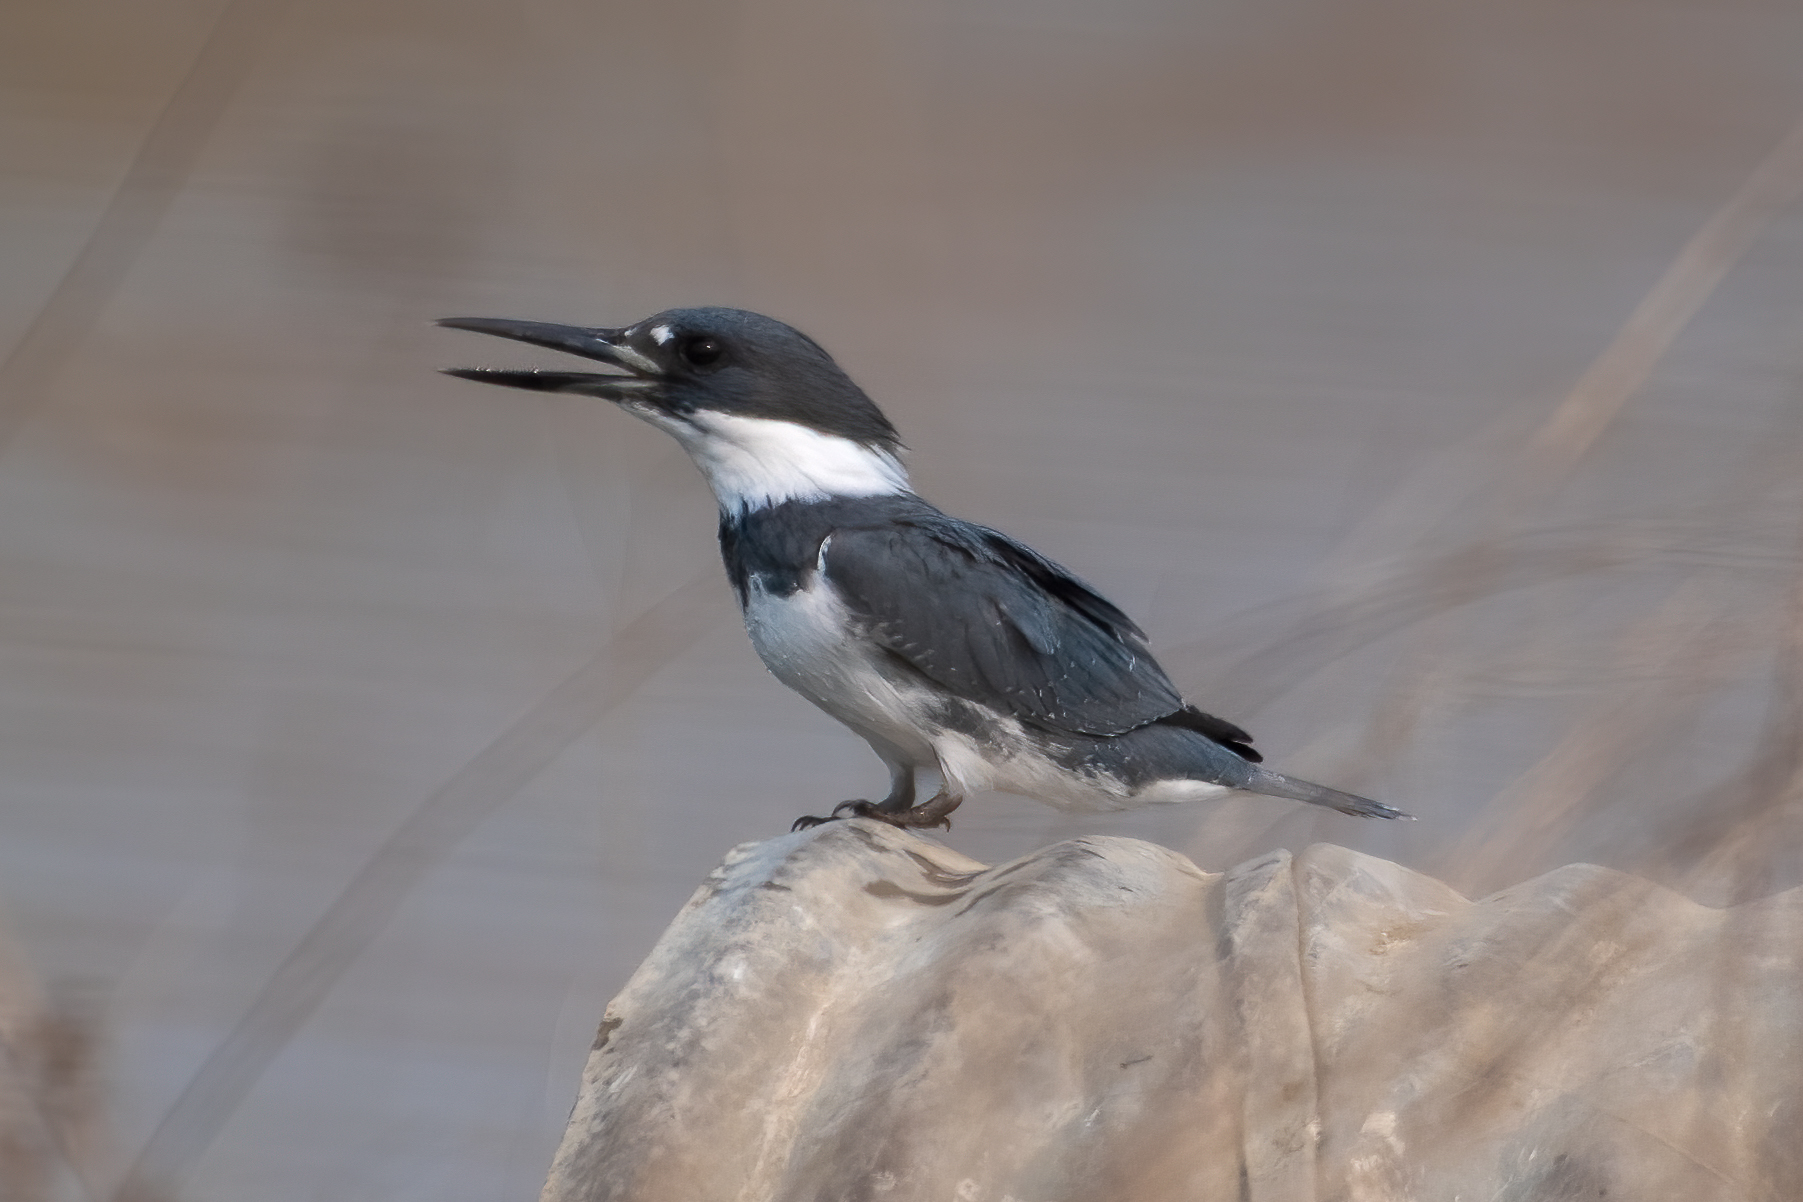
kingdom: Animalia
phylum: Chordata
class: Aves
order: Coraciiformes
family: Alcedinidae
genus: Megaceryle
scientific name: Megaceryle alcyon
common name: Belted kingfisher
